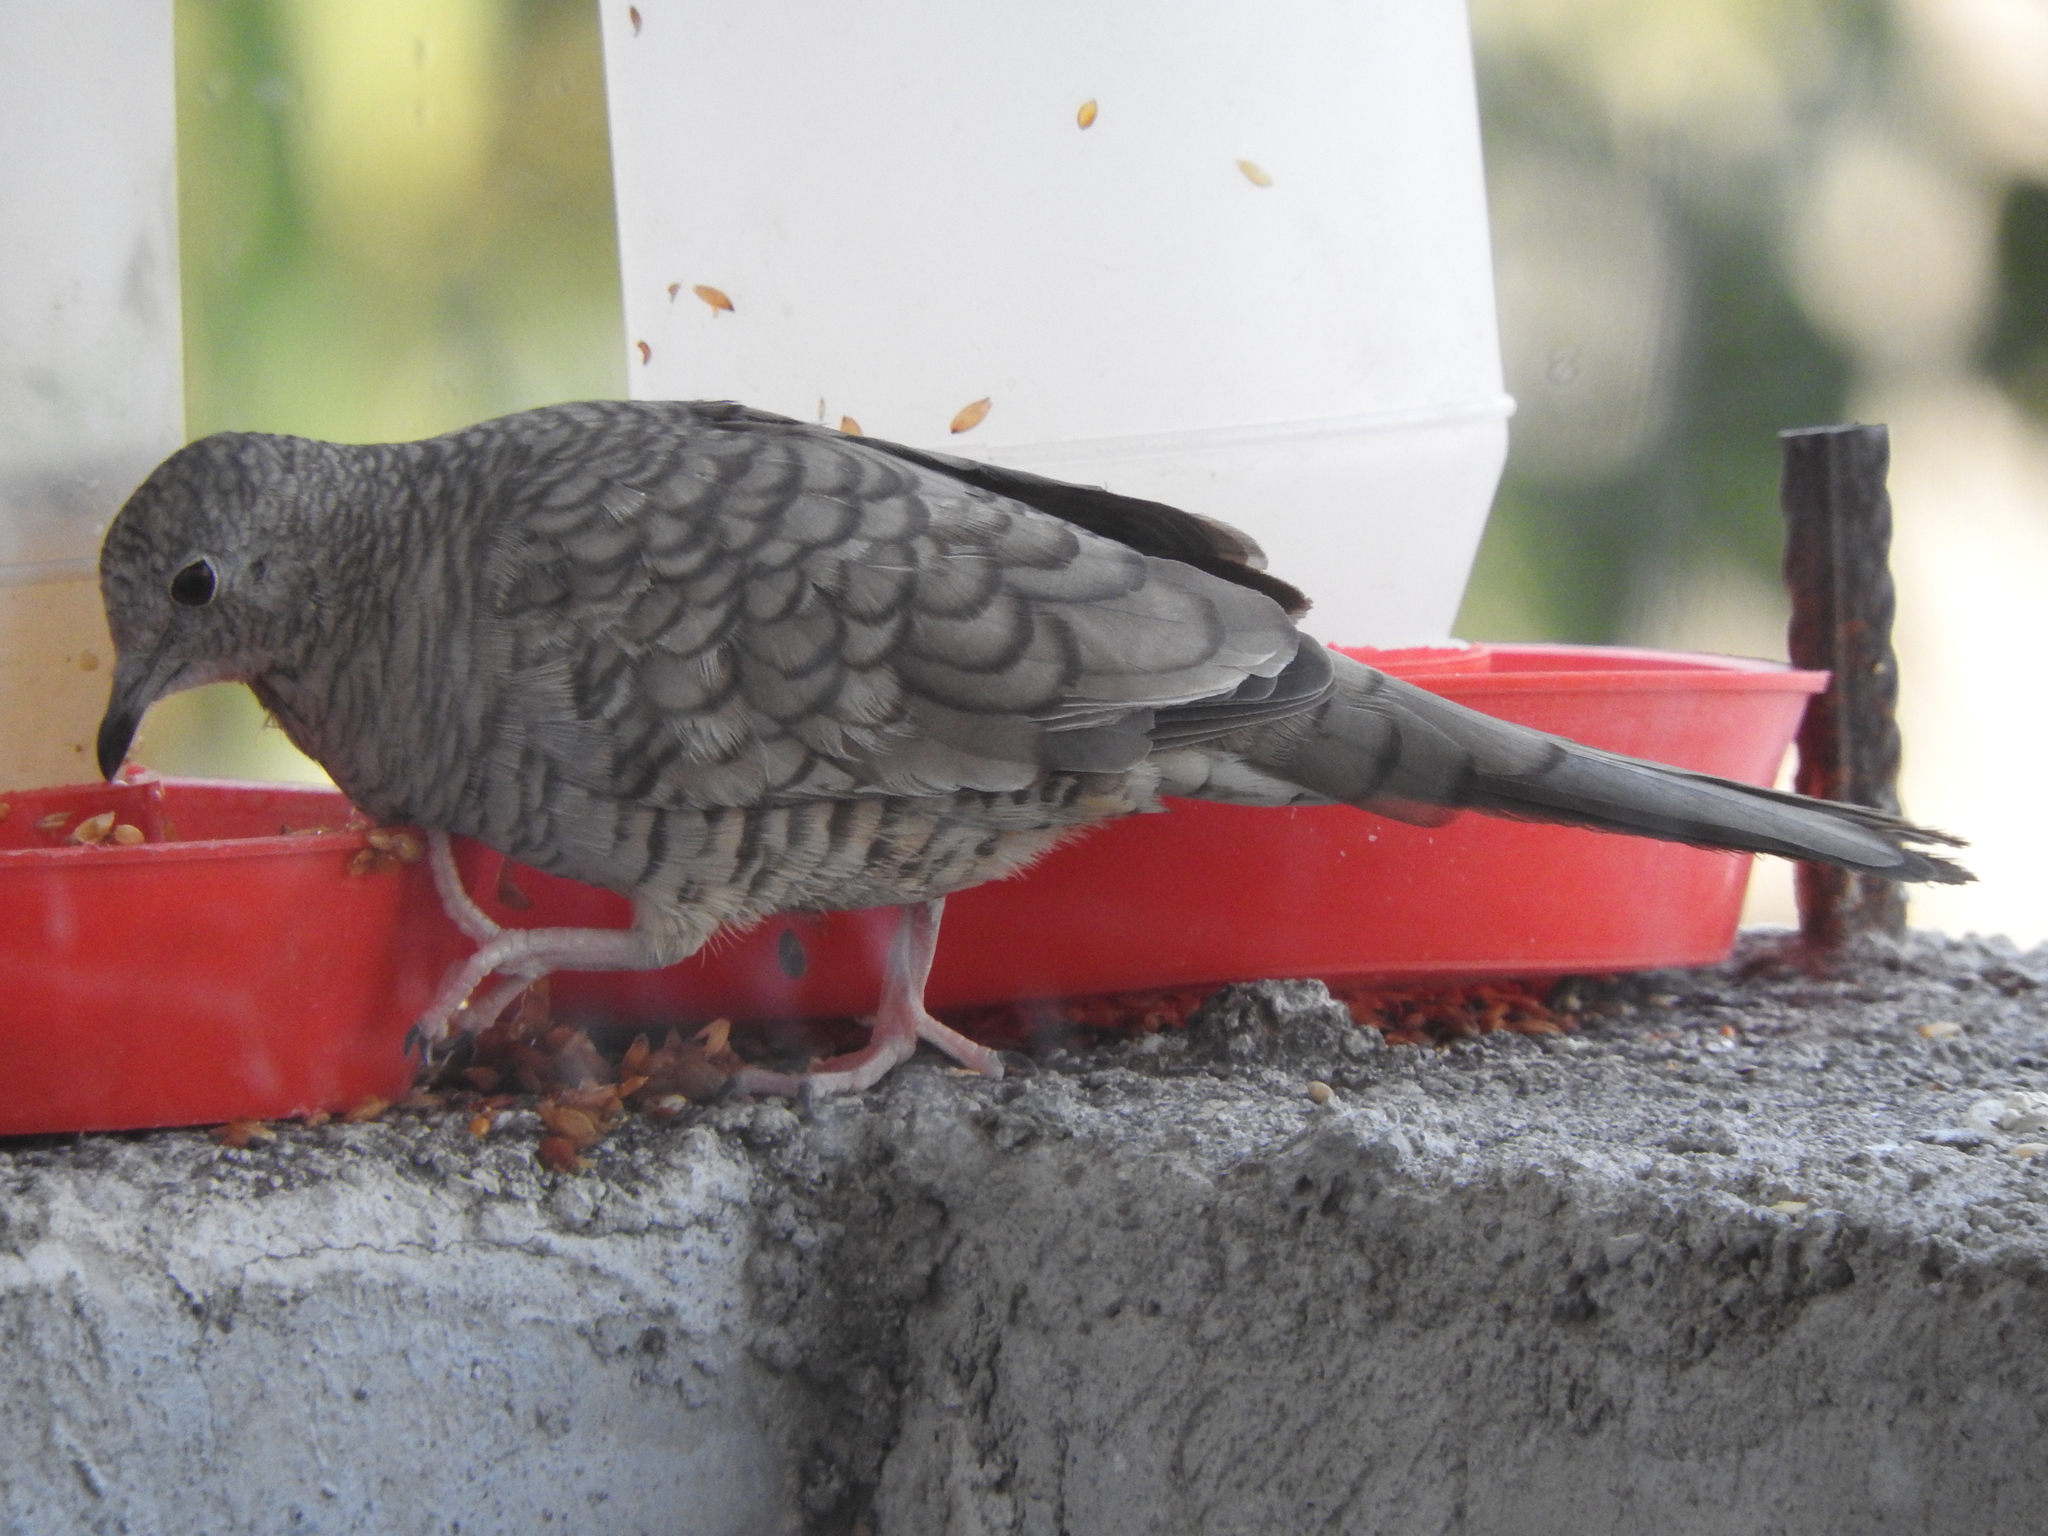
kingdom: Animalia
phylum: Chordata
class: Aves
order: Columbiformes
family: Columbidae
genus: Columbina
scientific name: Columbina inca
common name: Inca dove
